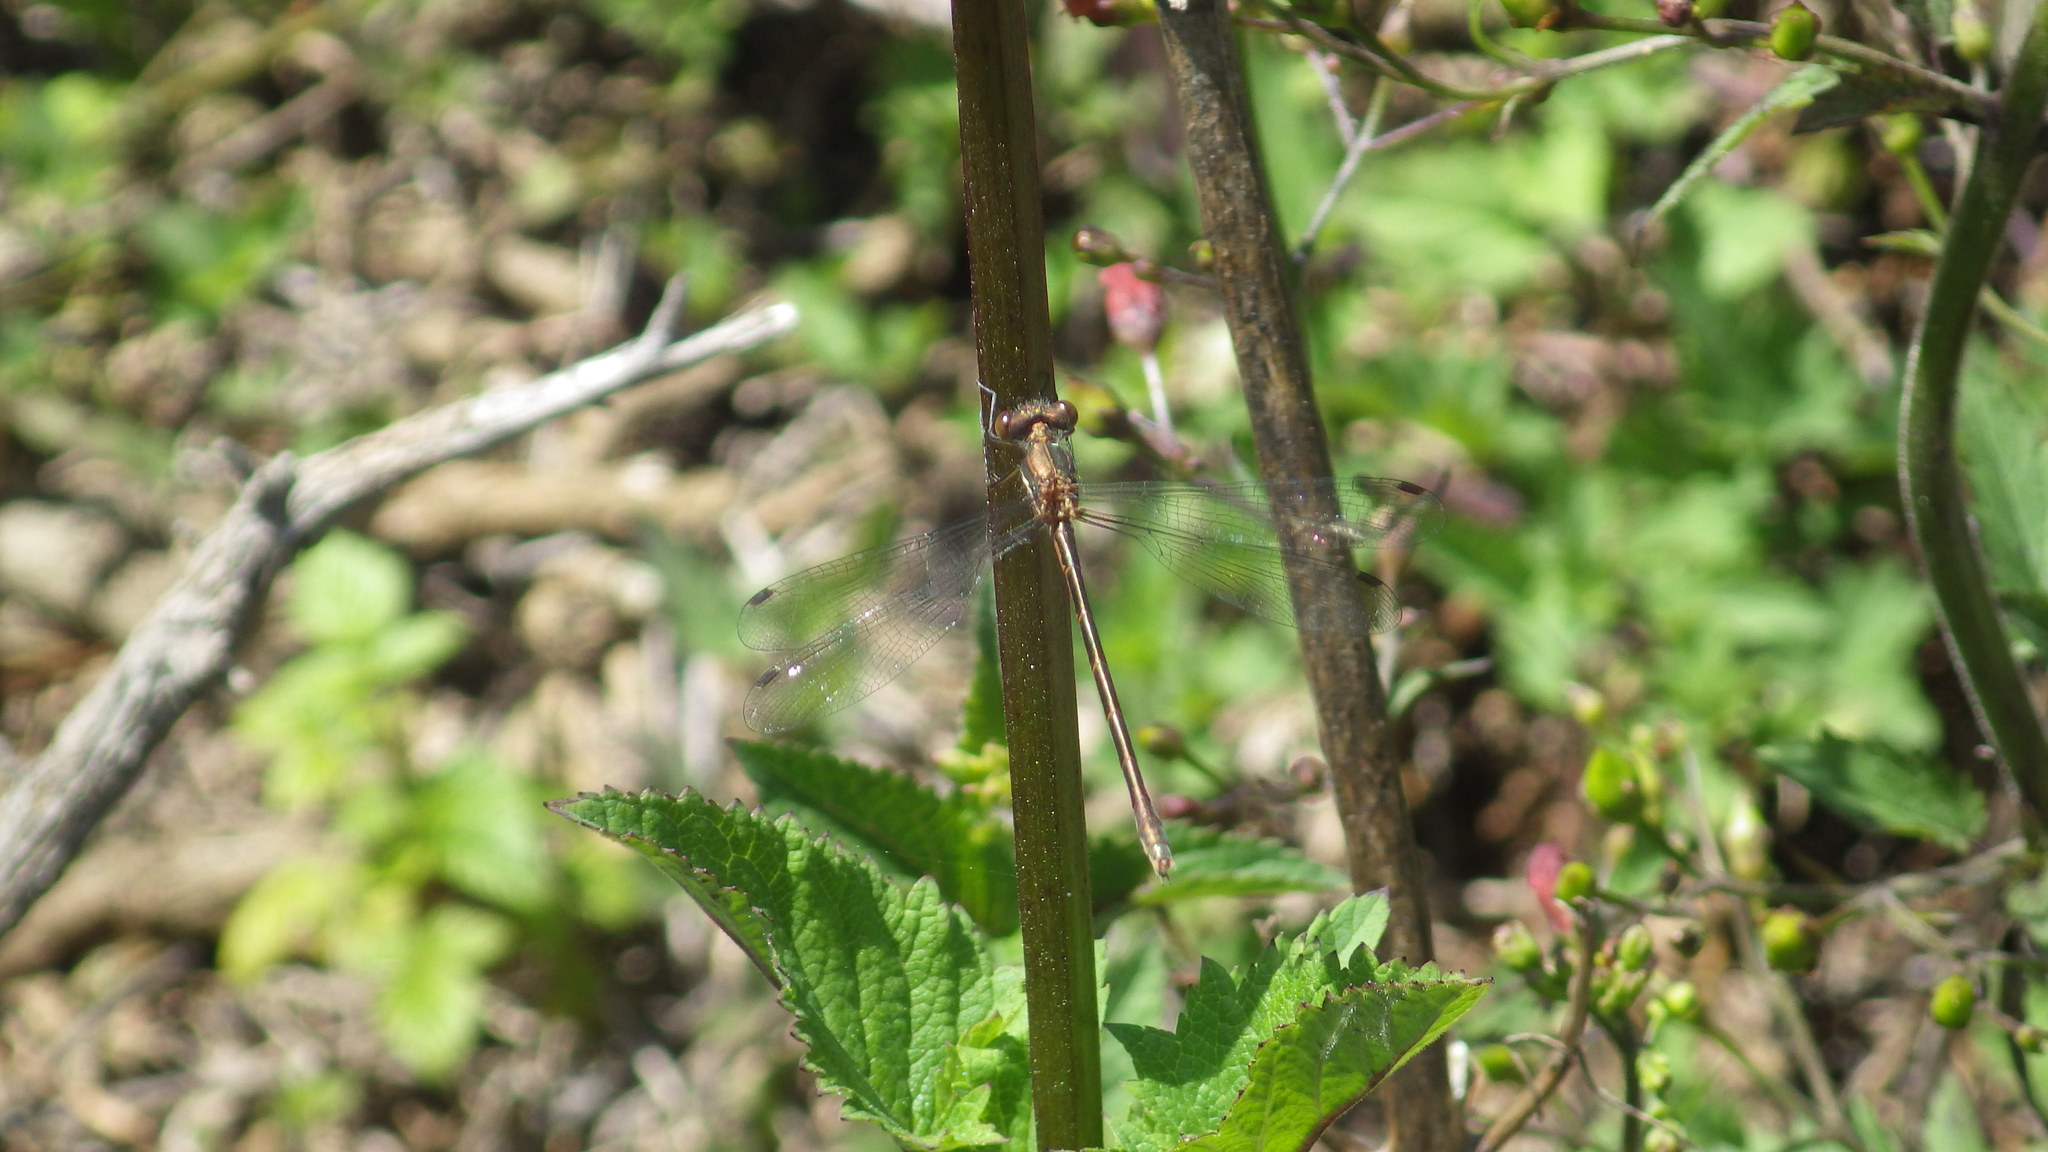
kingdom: Animalia
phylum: Arthropoda
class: Insecta
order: Odonata
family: Lestidae
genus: Lestes
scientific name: Lestes stultus
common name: Black spreadwing
